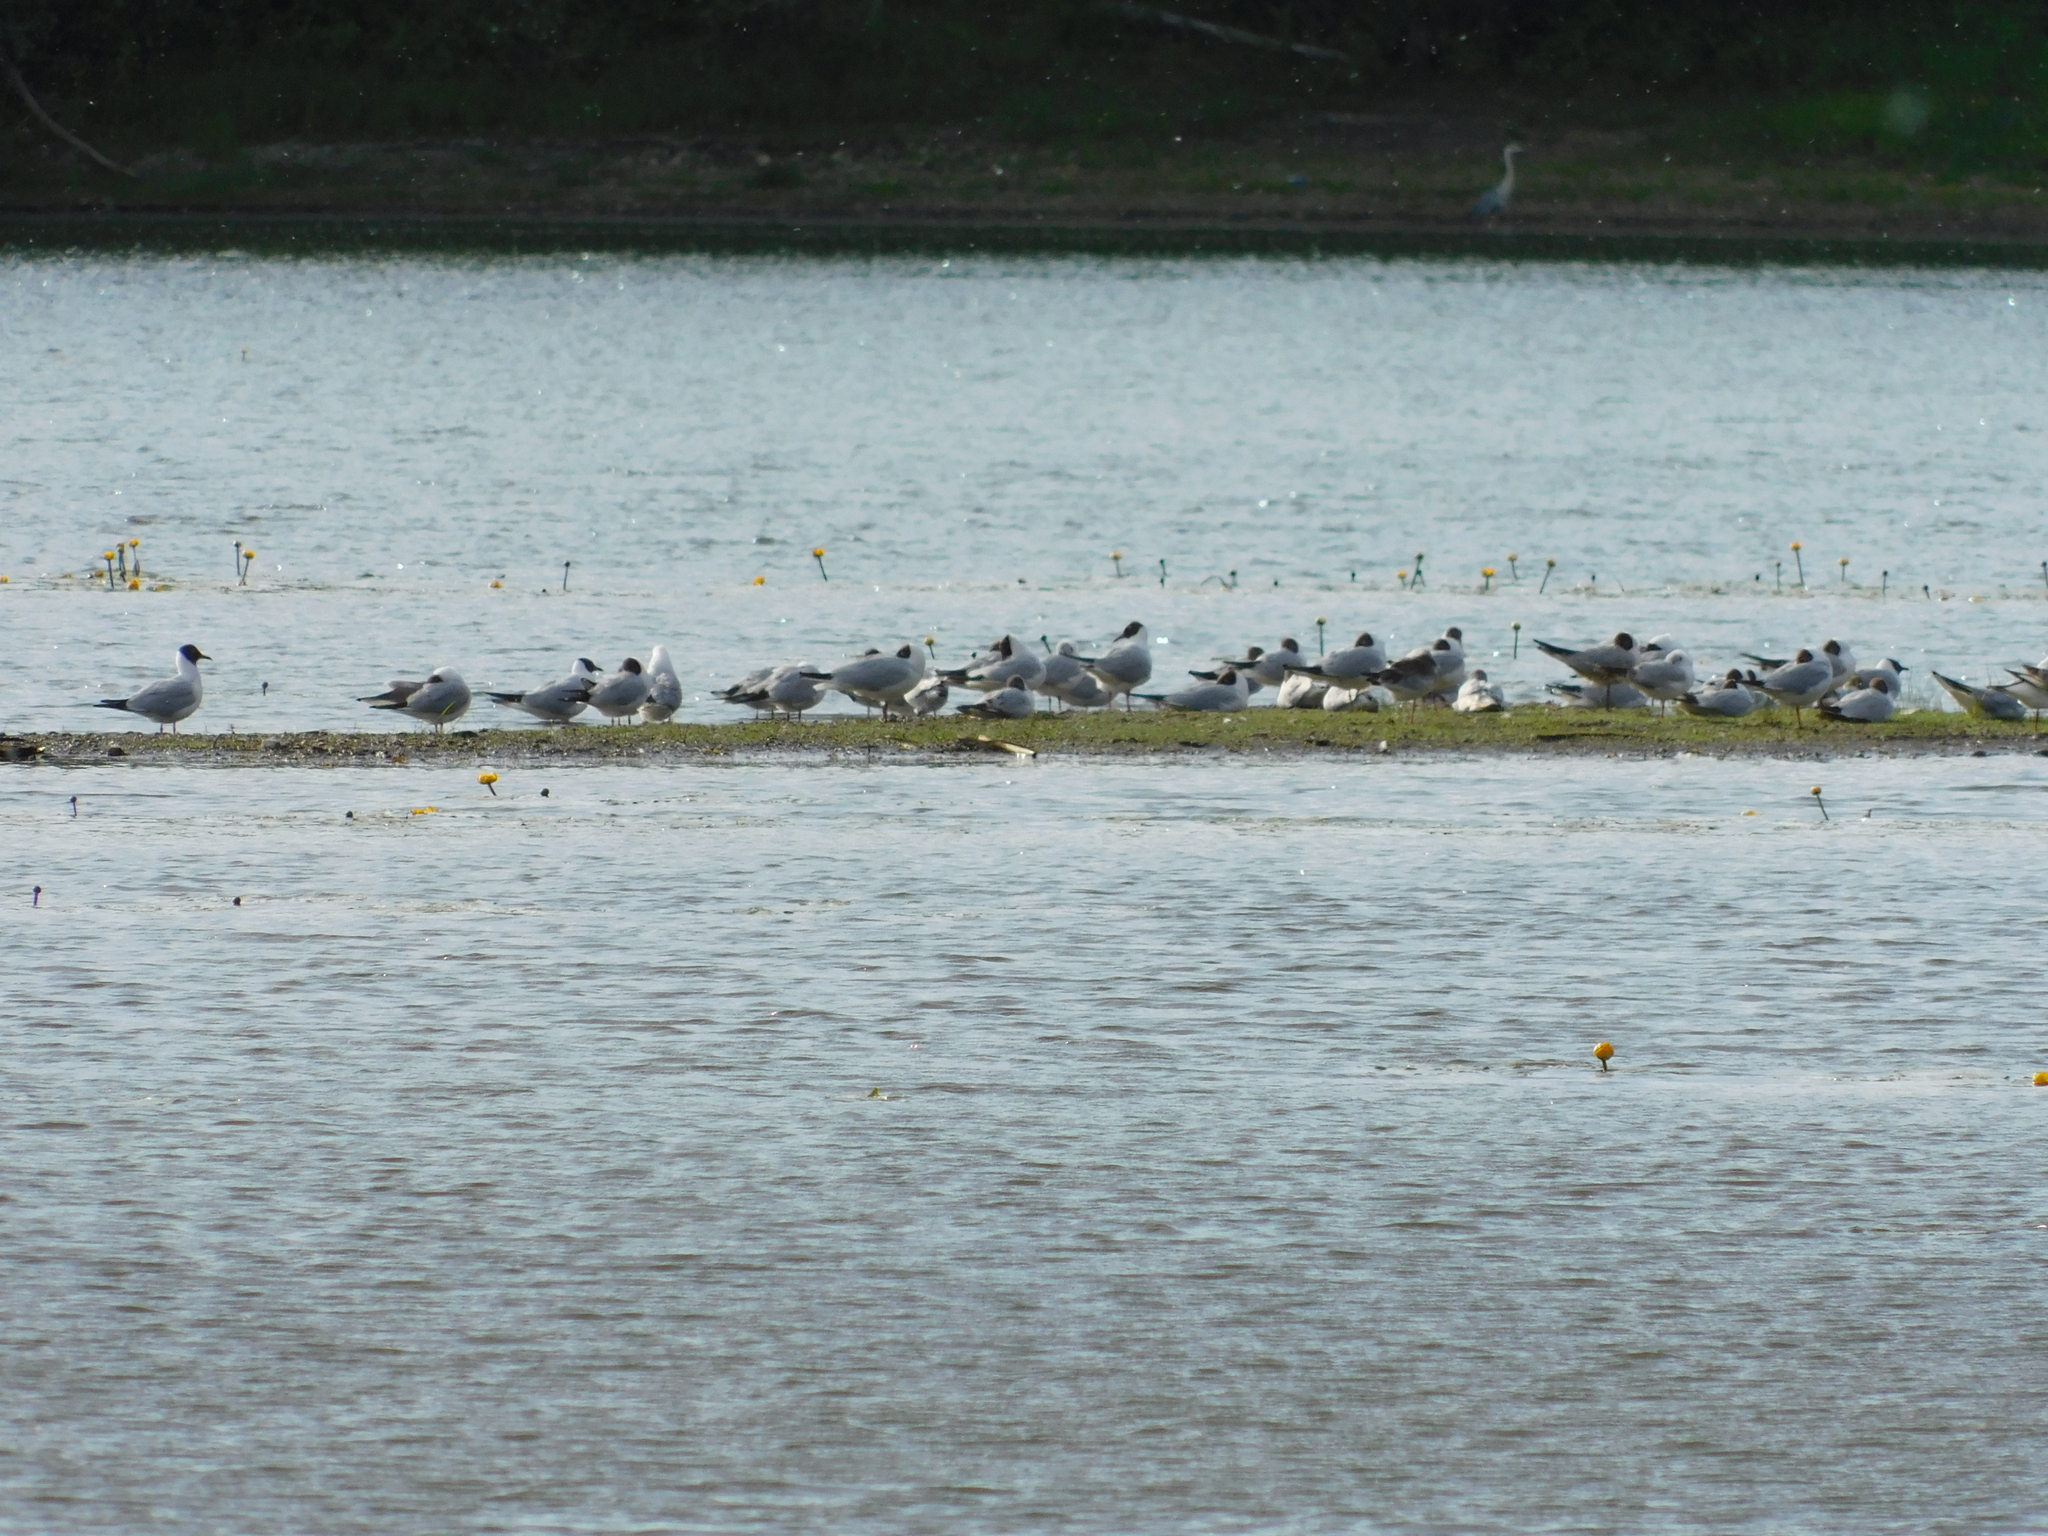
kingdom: Animalia
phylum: Chordata
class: Aves
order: Charadriiformes
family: Laridae
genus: Chroicocephalus
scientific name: Chroicocephalus ridibundus
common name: Black-headed gull
